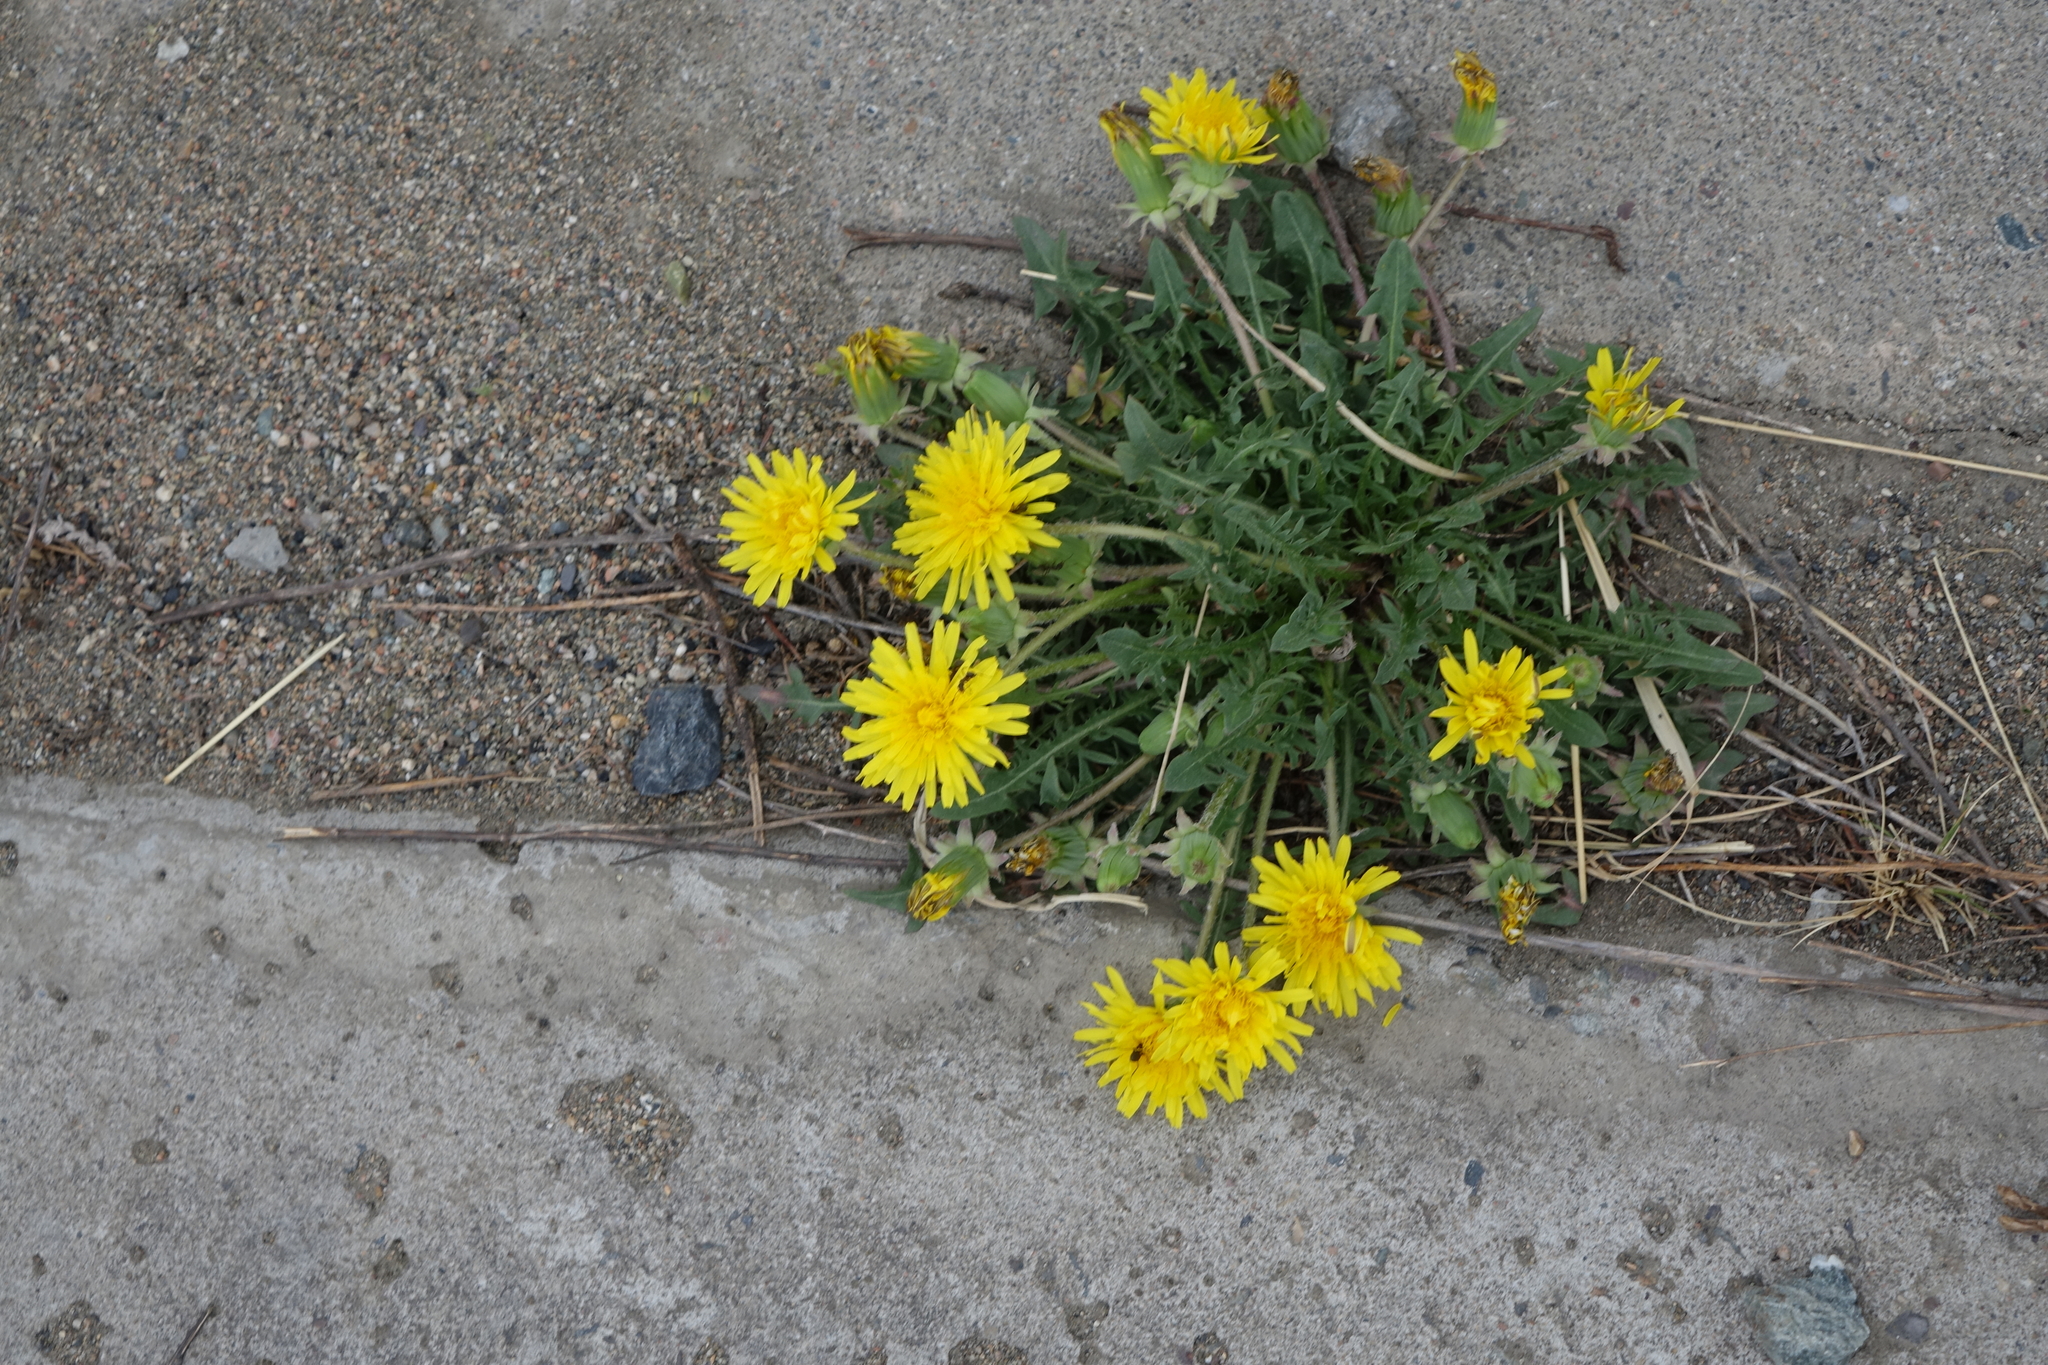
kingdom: Plantae
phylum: Tracheophyta
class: Magnoliopsida
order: Asterales
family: Asteraceae
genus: Taraxacum
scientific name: Taraxacum officinale
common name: Common dandelion
